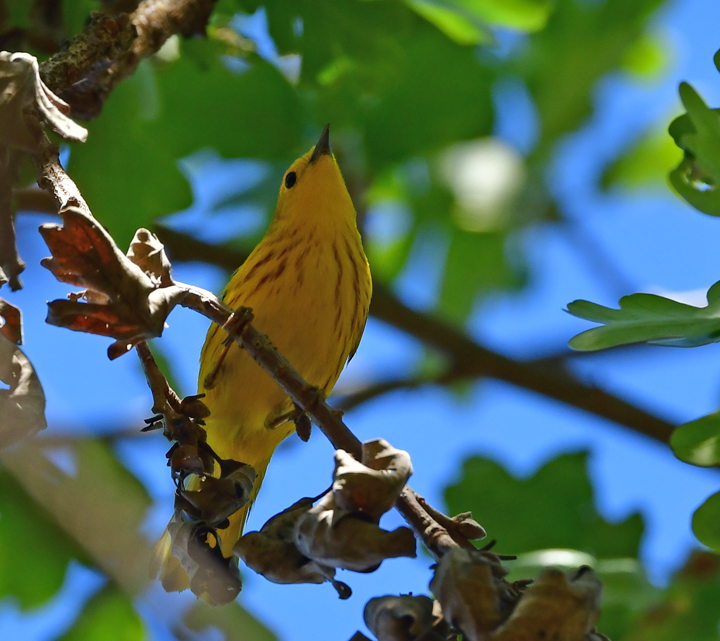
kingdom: Animalia
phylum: Chordata
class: Aves
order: Passeriformes
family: Parulidae
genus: Setophaga
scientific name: Setophaga petechia
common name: Yellow warbler
